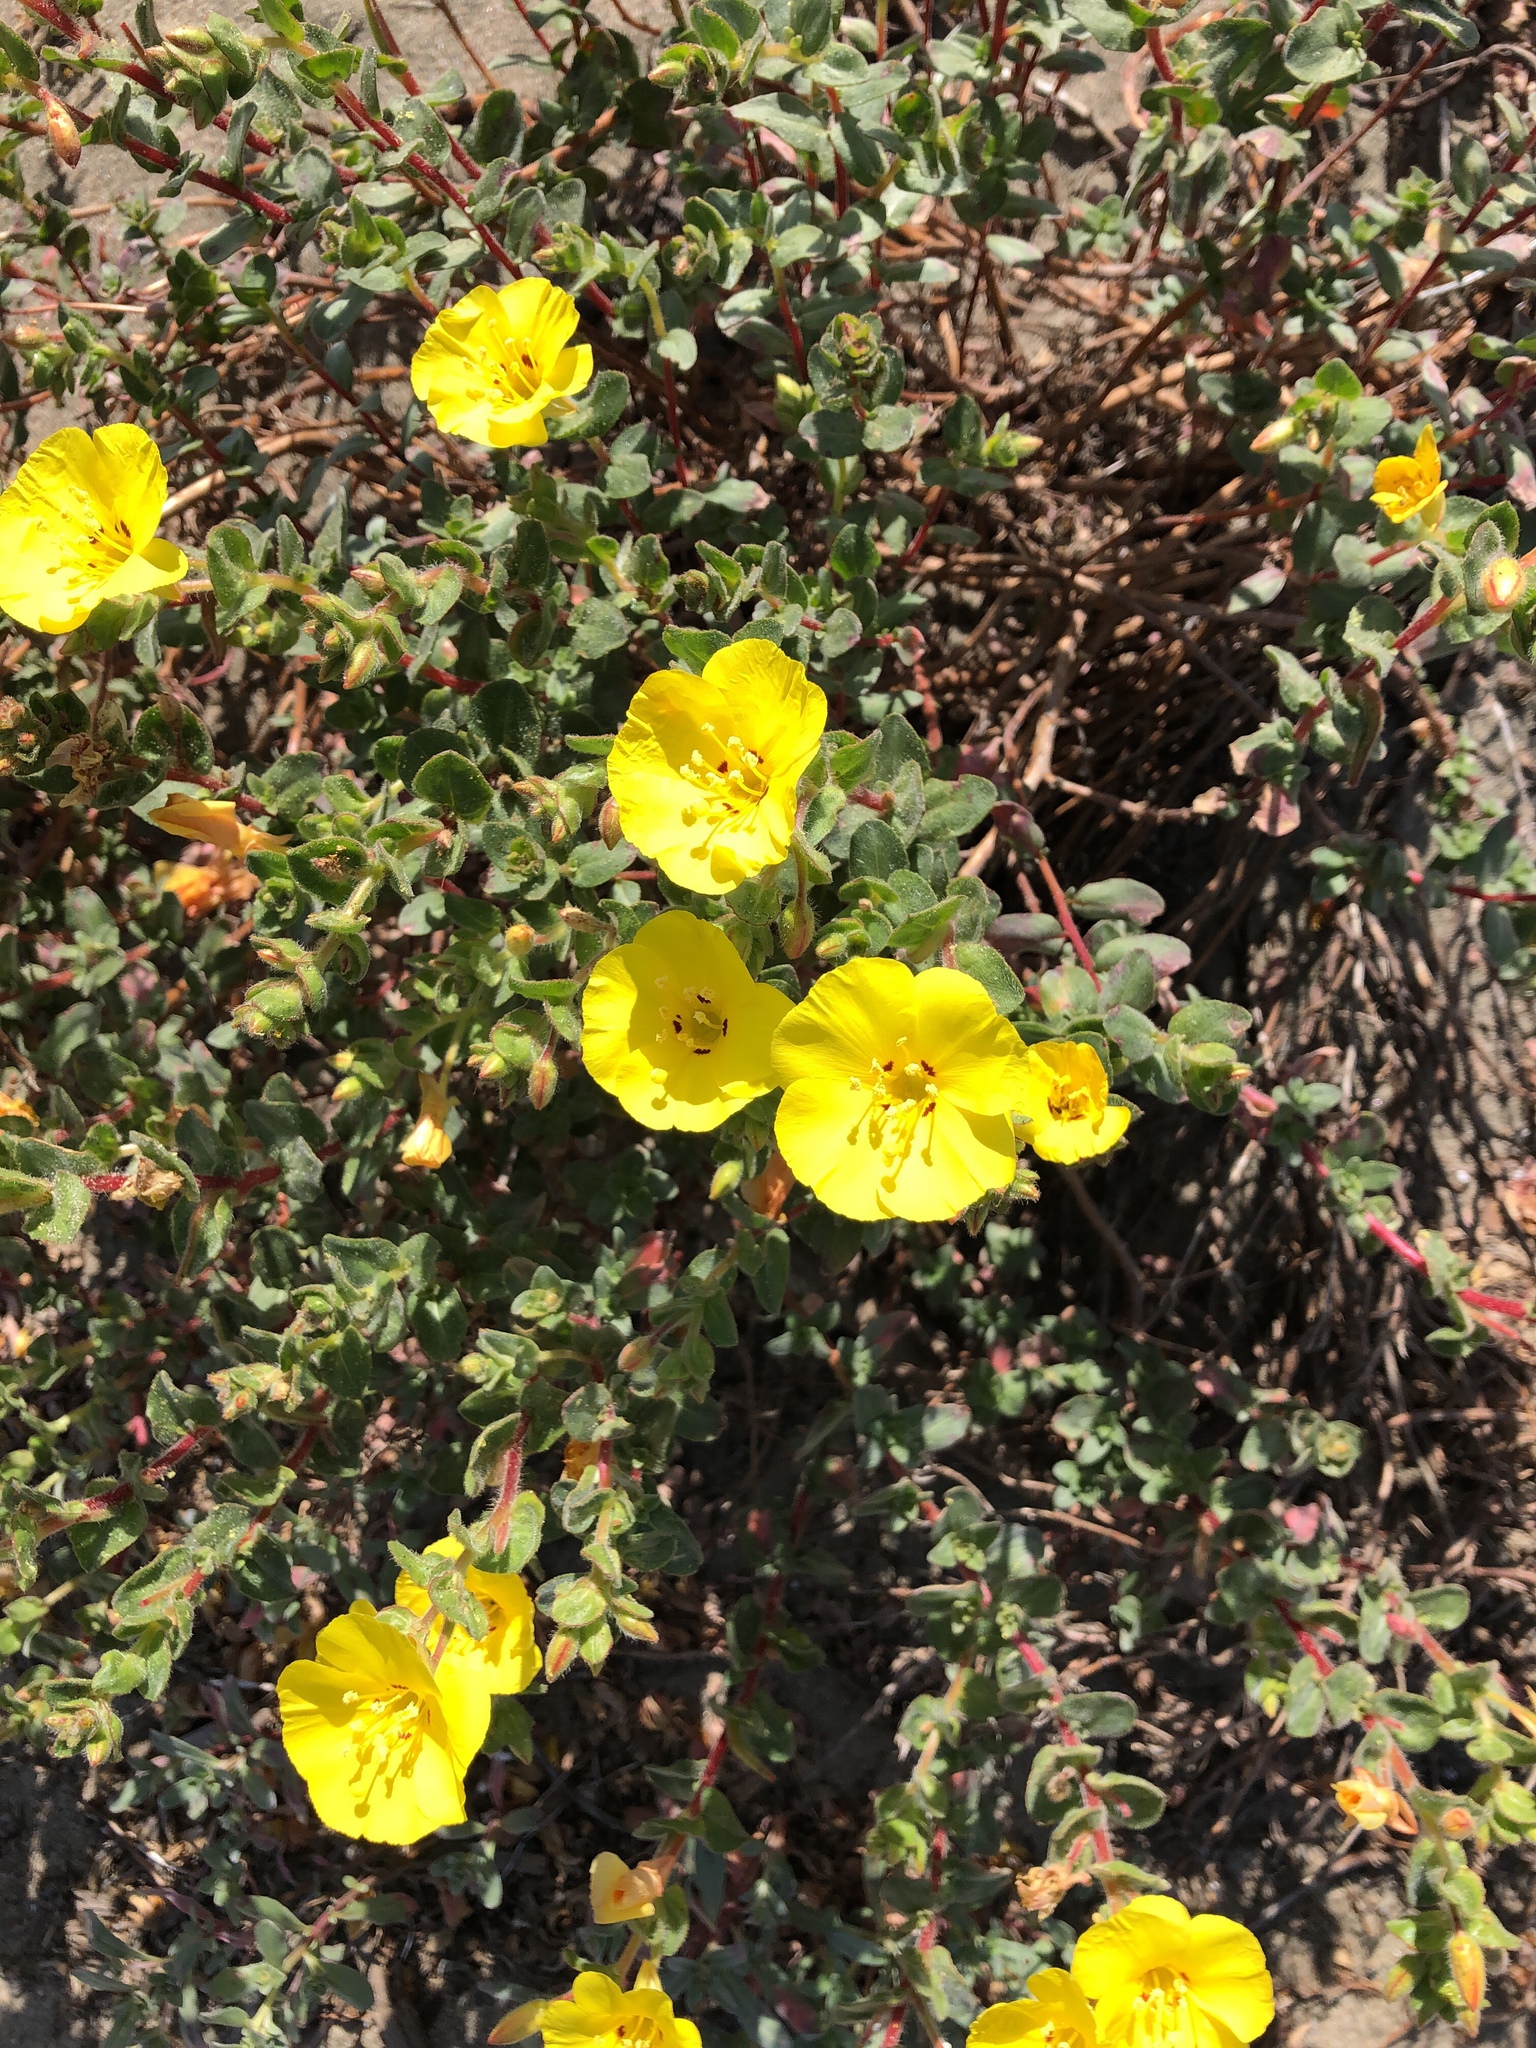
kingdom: Plantae
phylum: Tracheophyta
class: Magnoliopsida
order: Myrtales
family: Onagraceae
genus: Camissoniopsis
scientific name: Camissoniopsis cheiranthifolia
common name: Beach suncup
